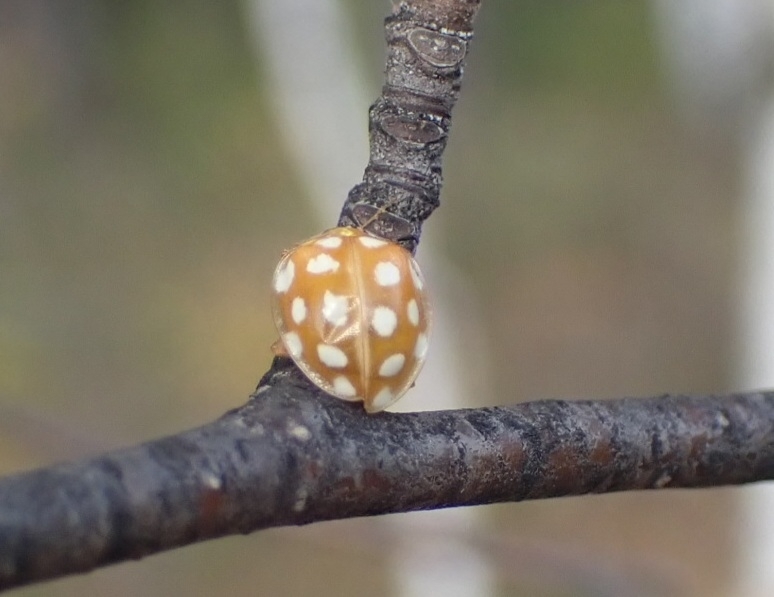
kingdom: Animalia
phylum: Arthropoda
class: Insecta
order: Coleoptera
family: Coccinellidae
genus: Halyzia
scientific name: Halyzia sedecimguttata
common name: Orange ladybird
